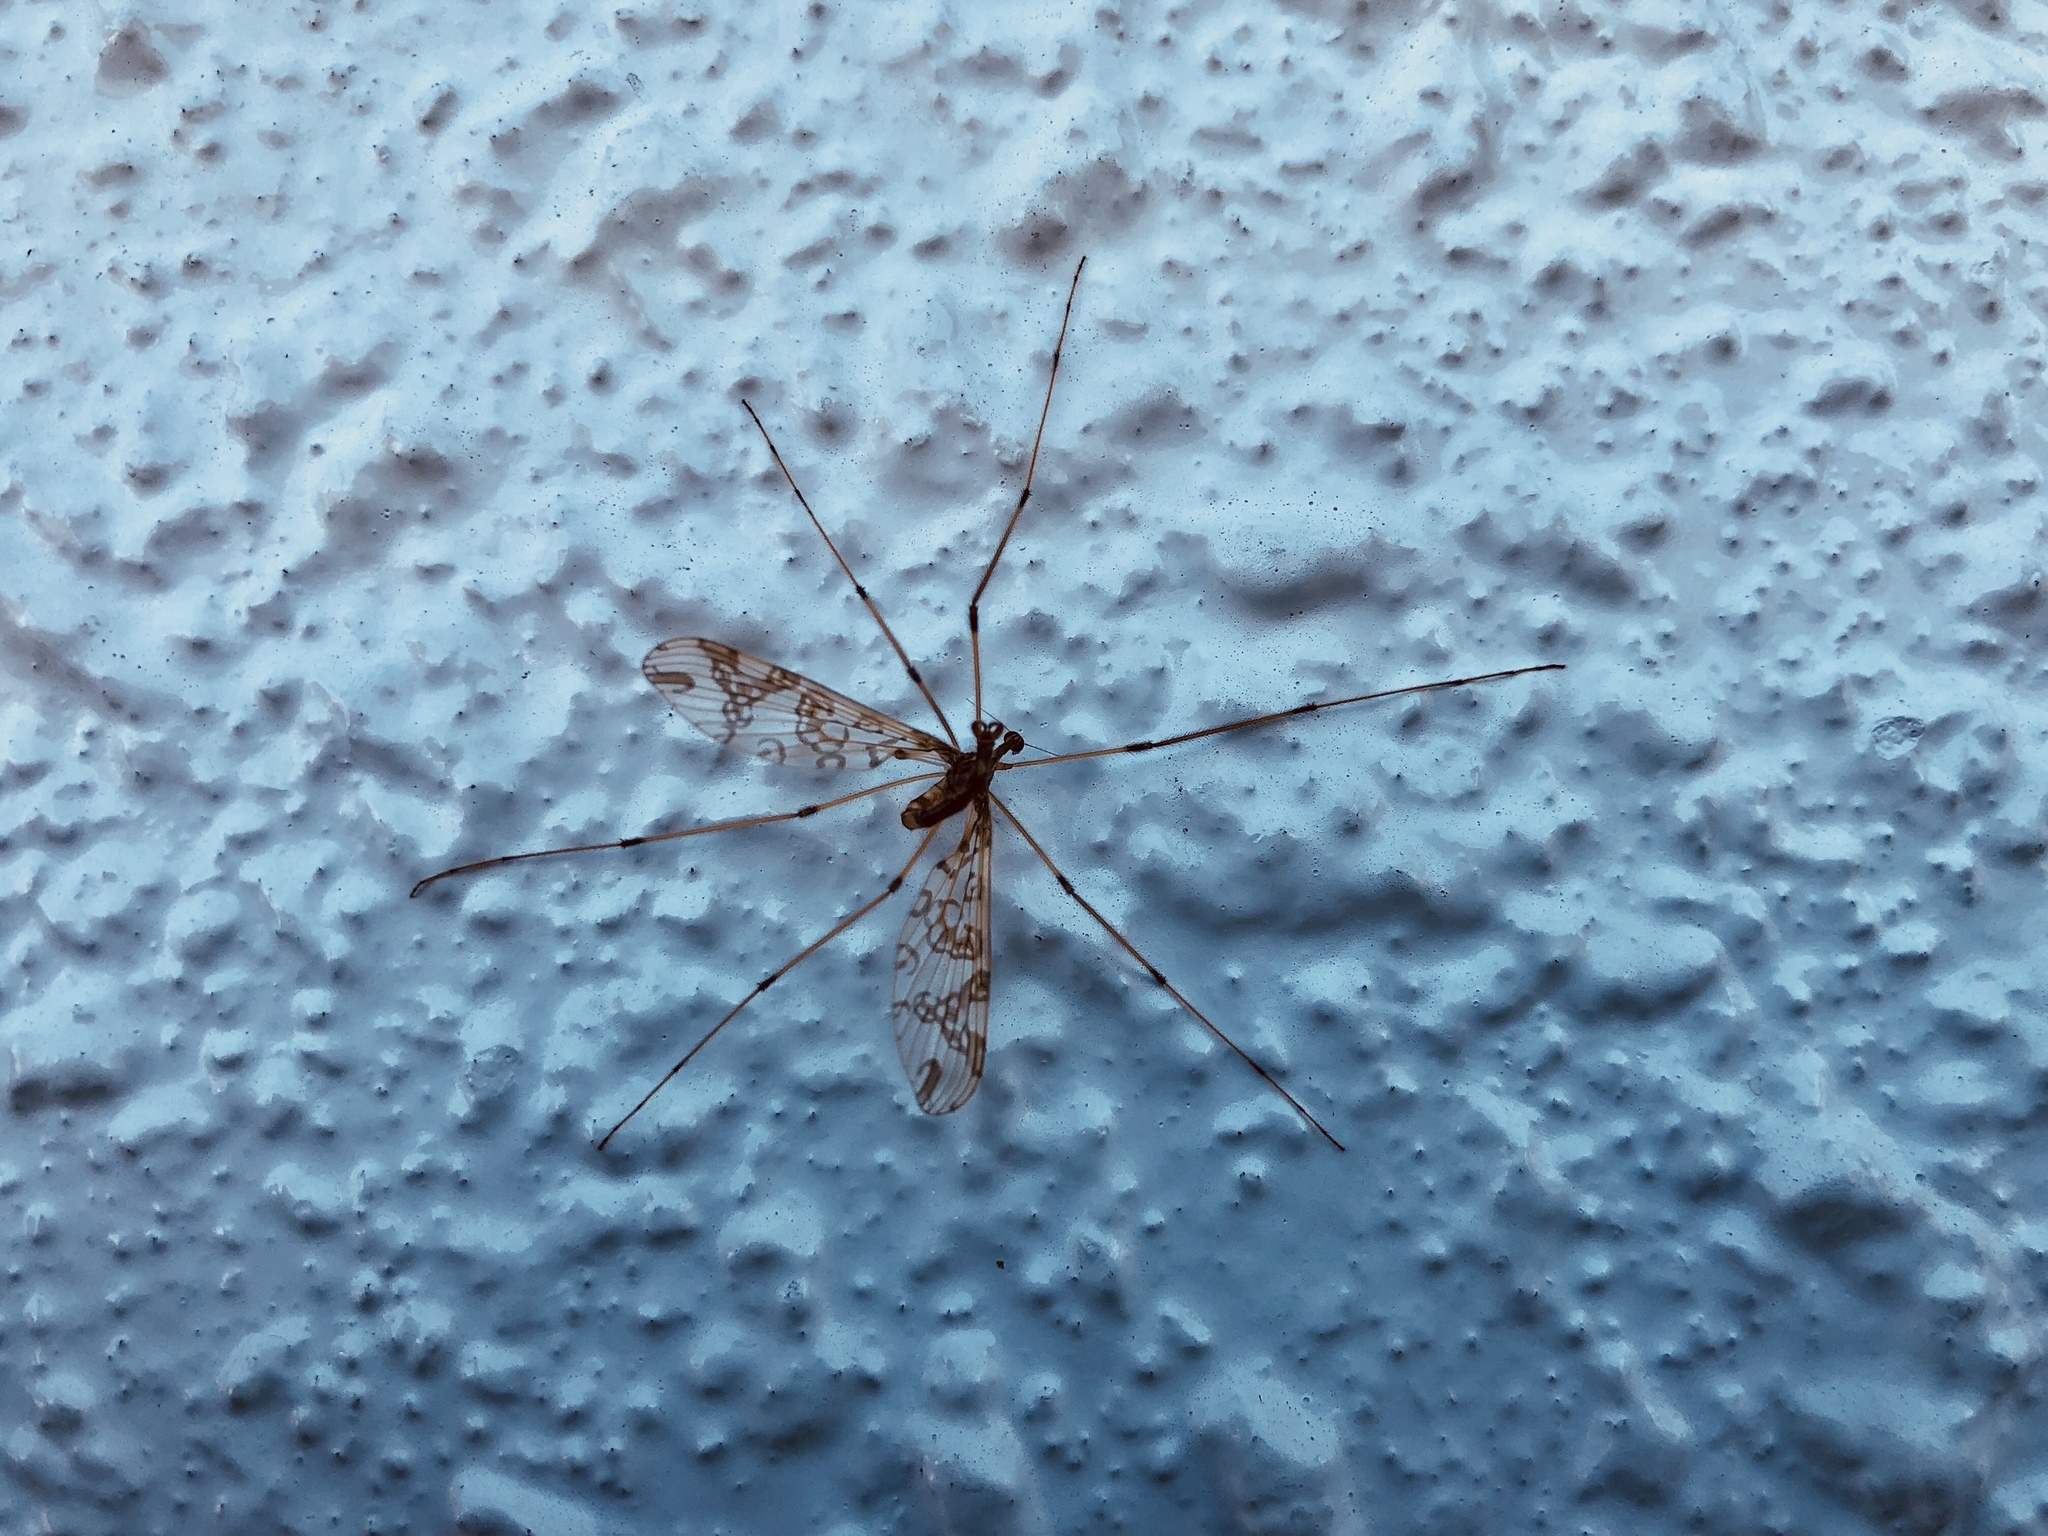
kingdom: Animalia
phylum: Arthropoda
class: Insecta
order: Diptera
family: Tanyderidae
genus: Tanyderus
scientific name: Tanyderus annuliferus
